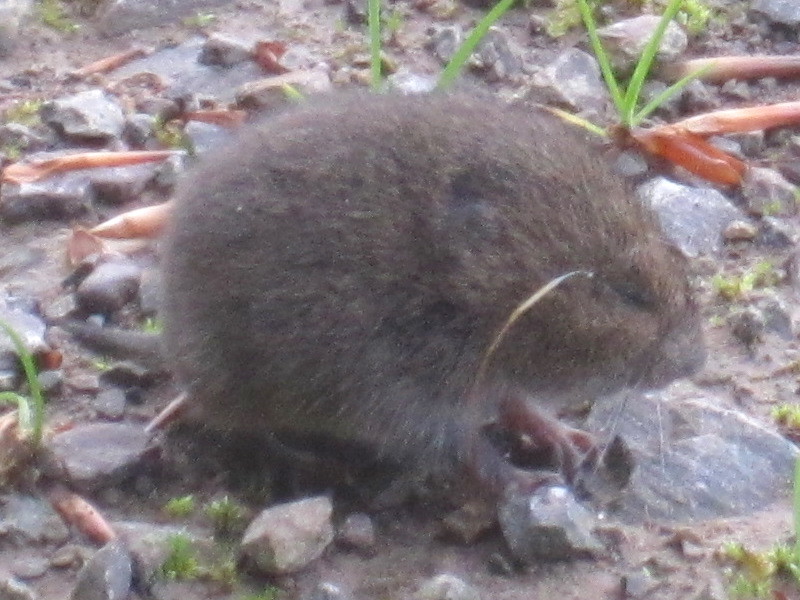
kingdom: Animalia
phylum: Chordata
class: Mammalia
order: Rodentia
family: Cricetidae
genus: Microtus
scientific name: Microtus pennsylvanicus
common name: Meadow vole
